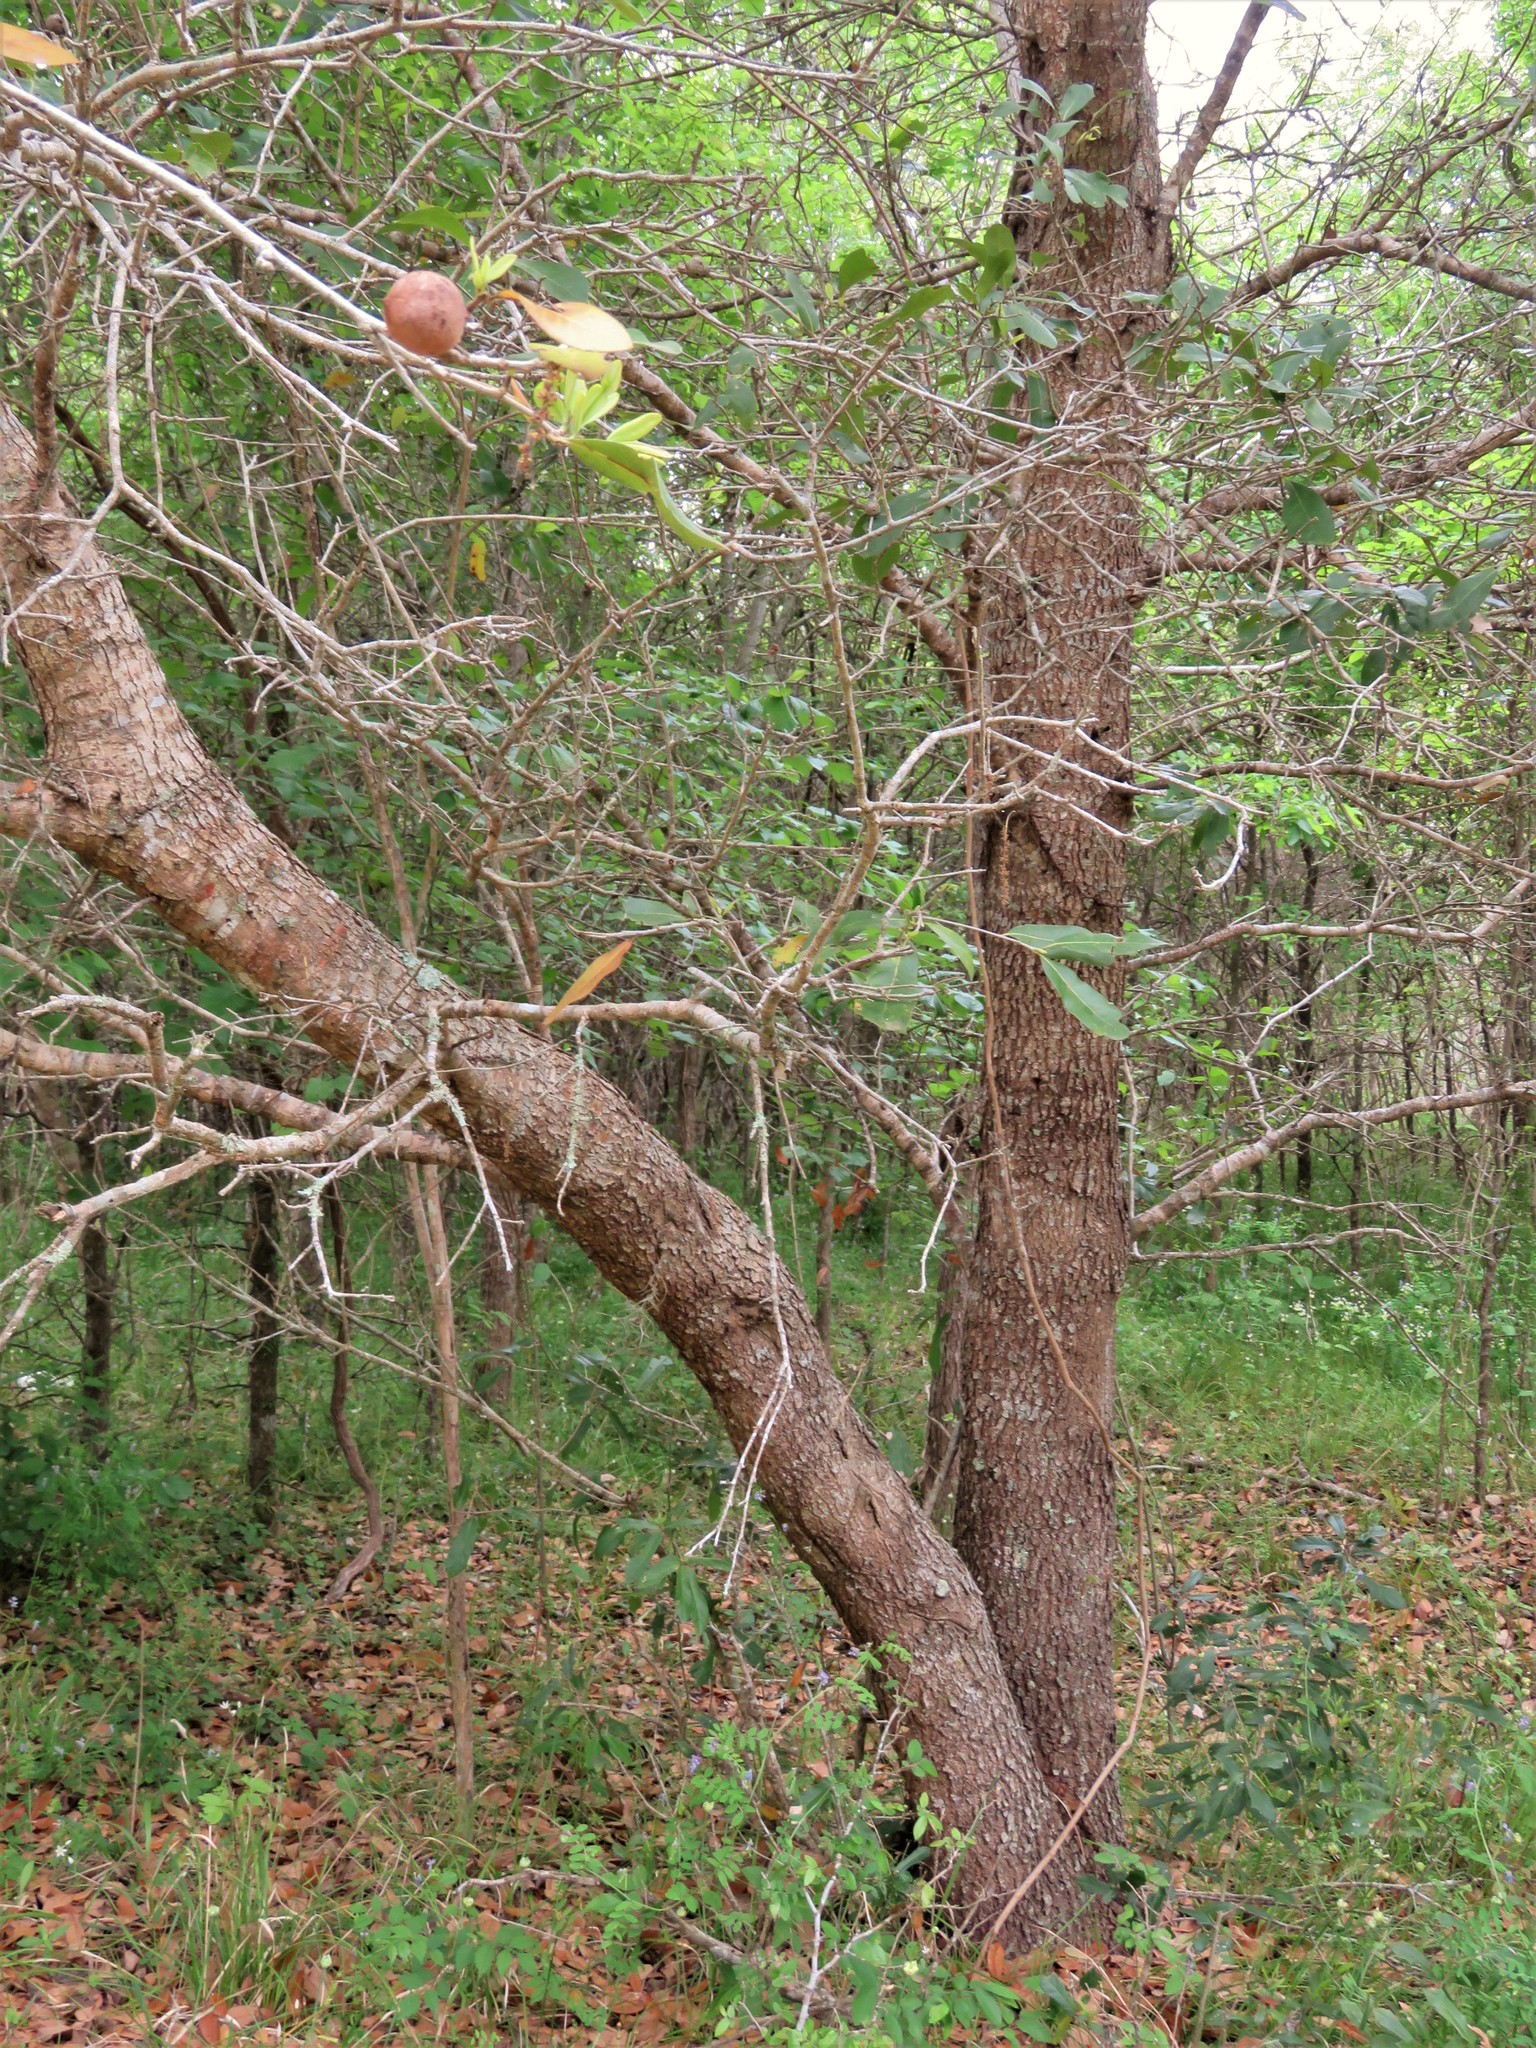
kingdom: Plantae
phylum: Tracheophyta
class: Magnoliopsida
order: Fagales
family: Fagaceae
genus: Quercus
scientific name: Quercus virginiana
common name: Southern live oak
